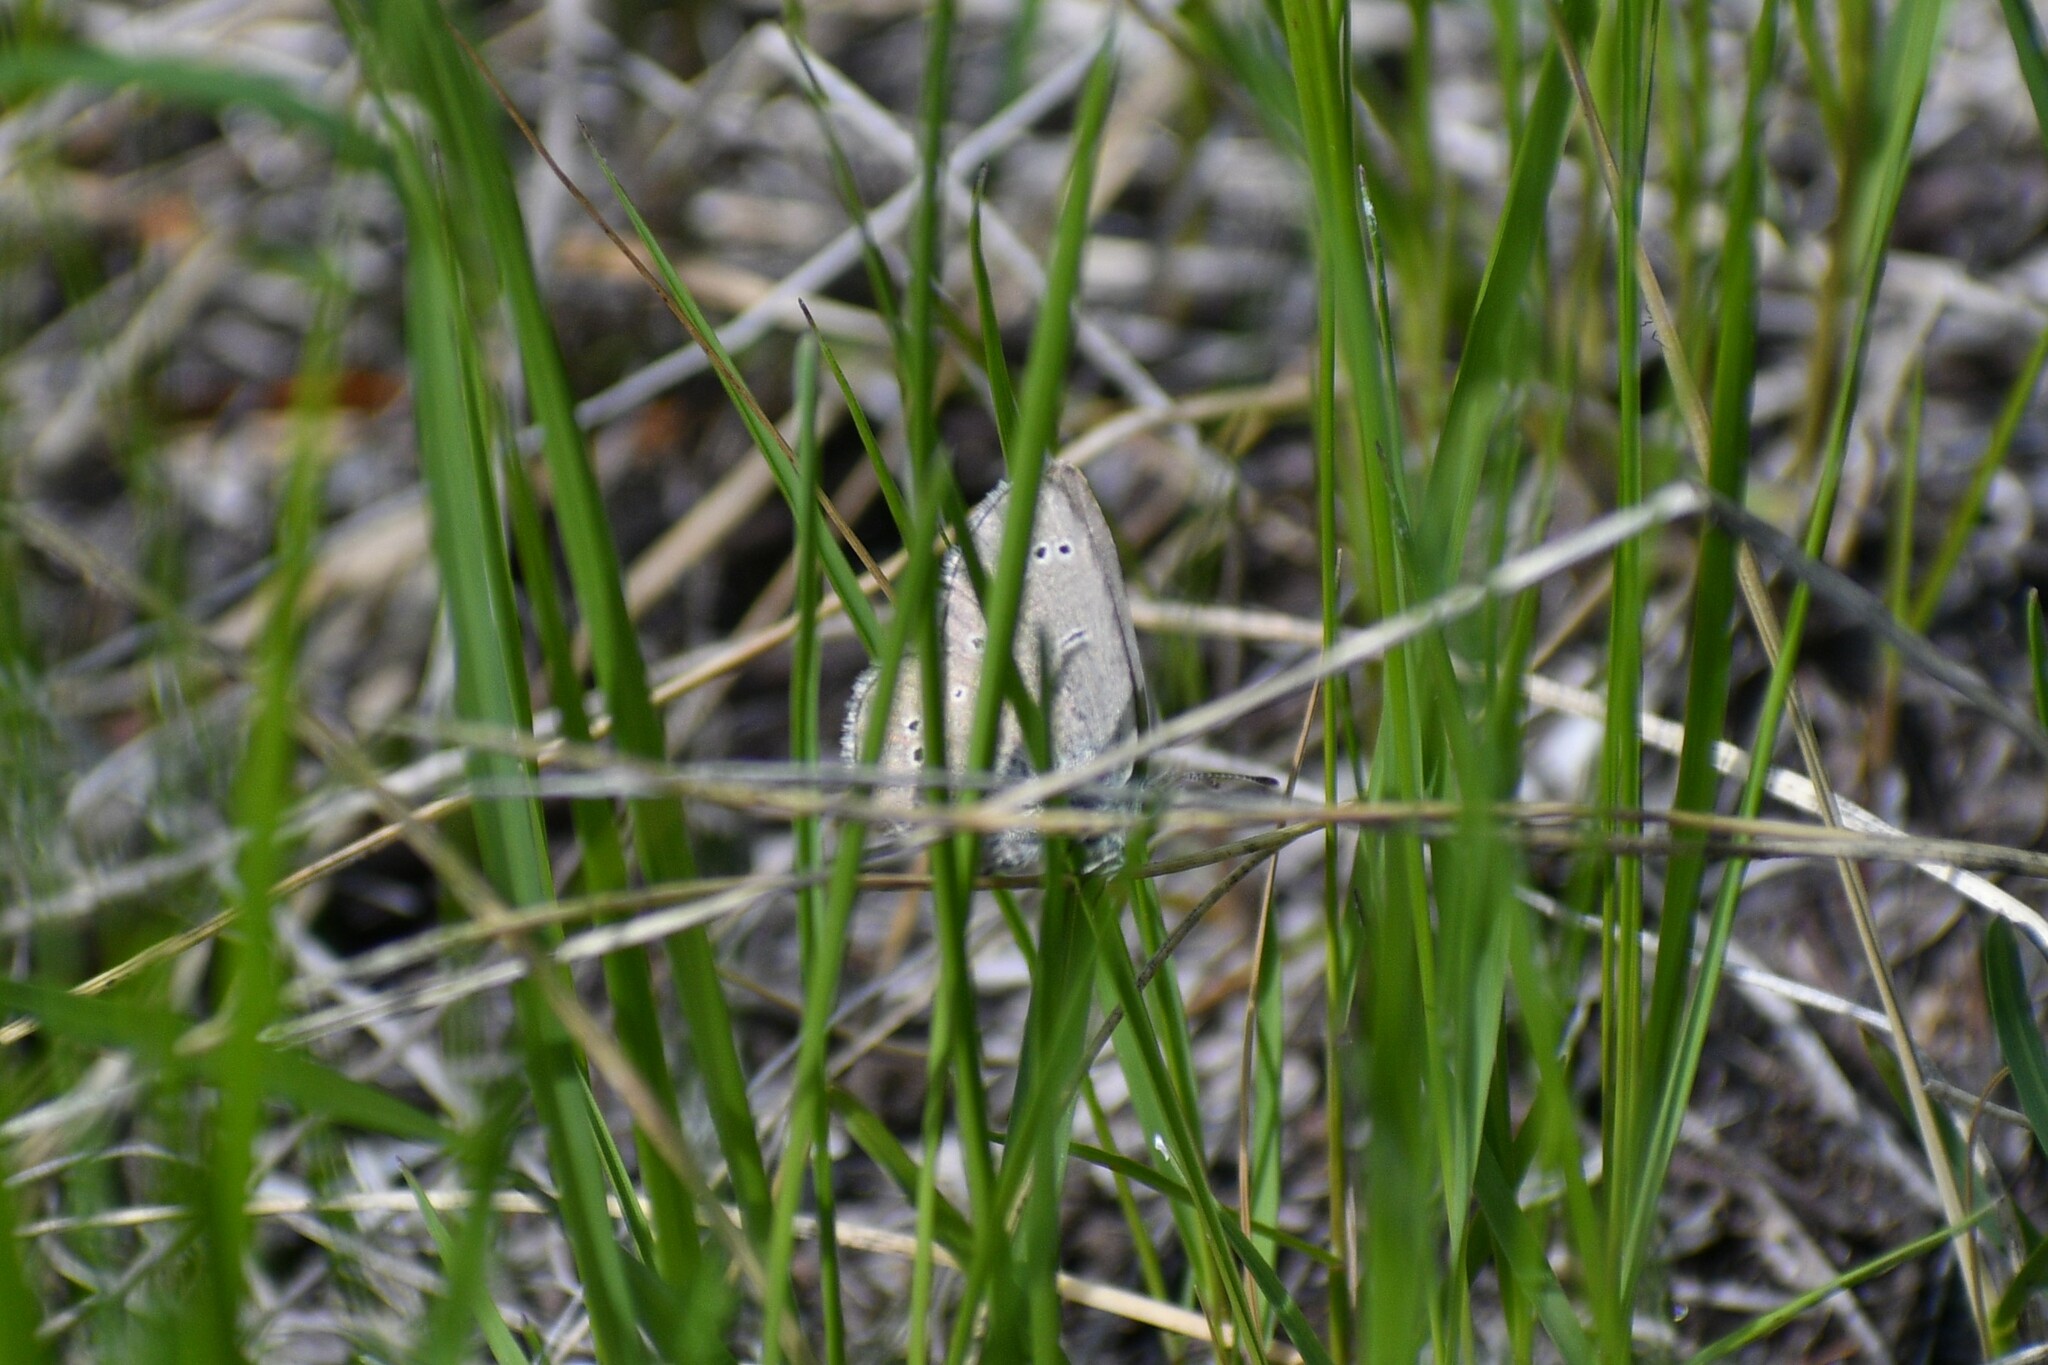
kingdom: Animalia
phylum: Arthropoda
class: Insecta
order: Lepidoptera
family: Lycaenidae
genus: Glaucopsyche
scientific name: Glaucopsyche lygdamus
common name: Silvery blue
